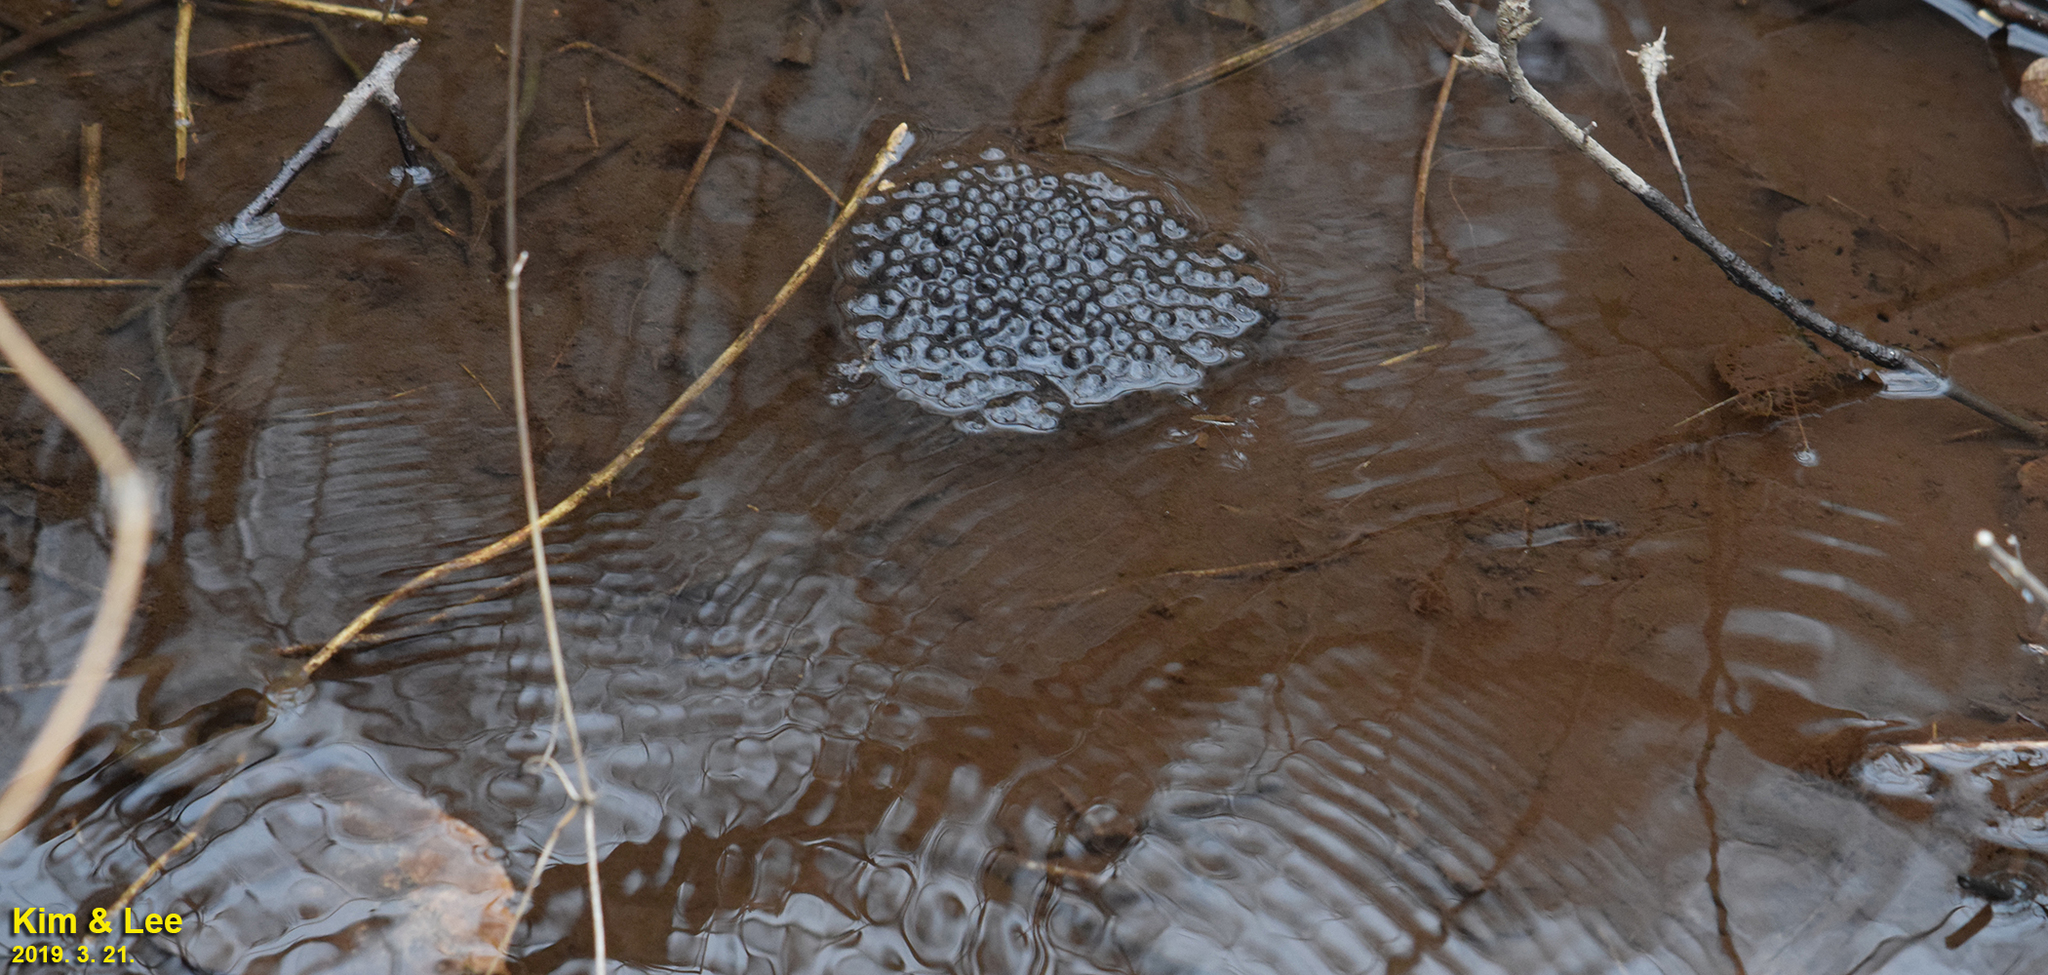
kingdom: Animalia
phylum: Chordata
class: Amphibia
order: Anura
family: Ranidae
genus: Rana
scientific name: Rana uenoi
